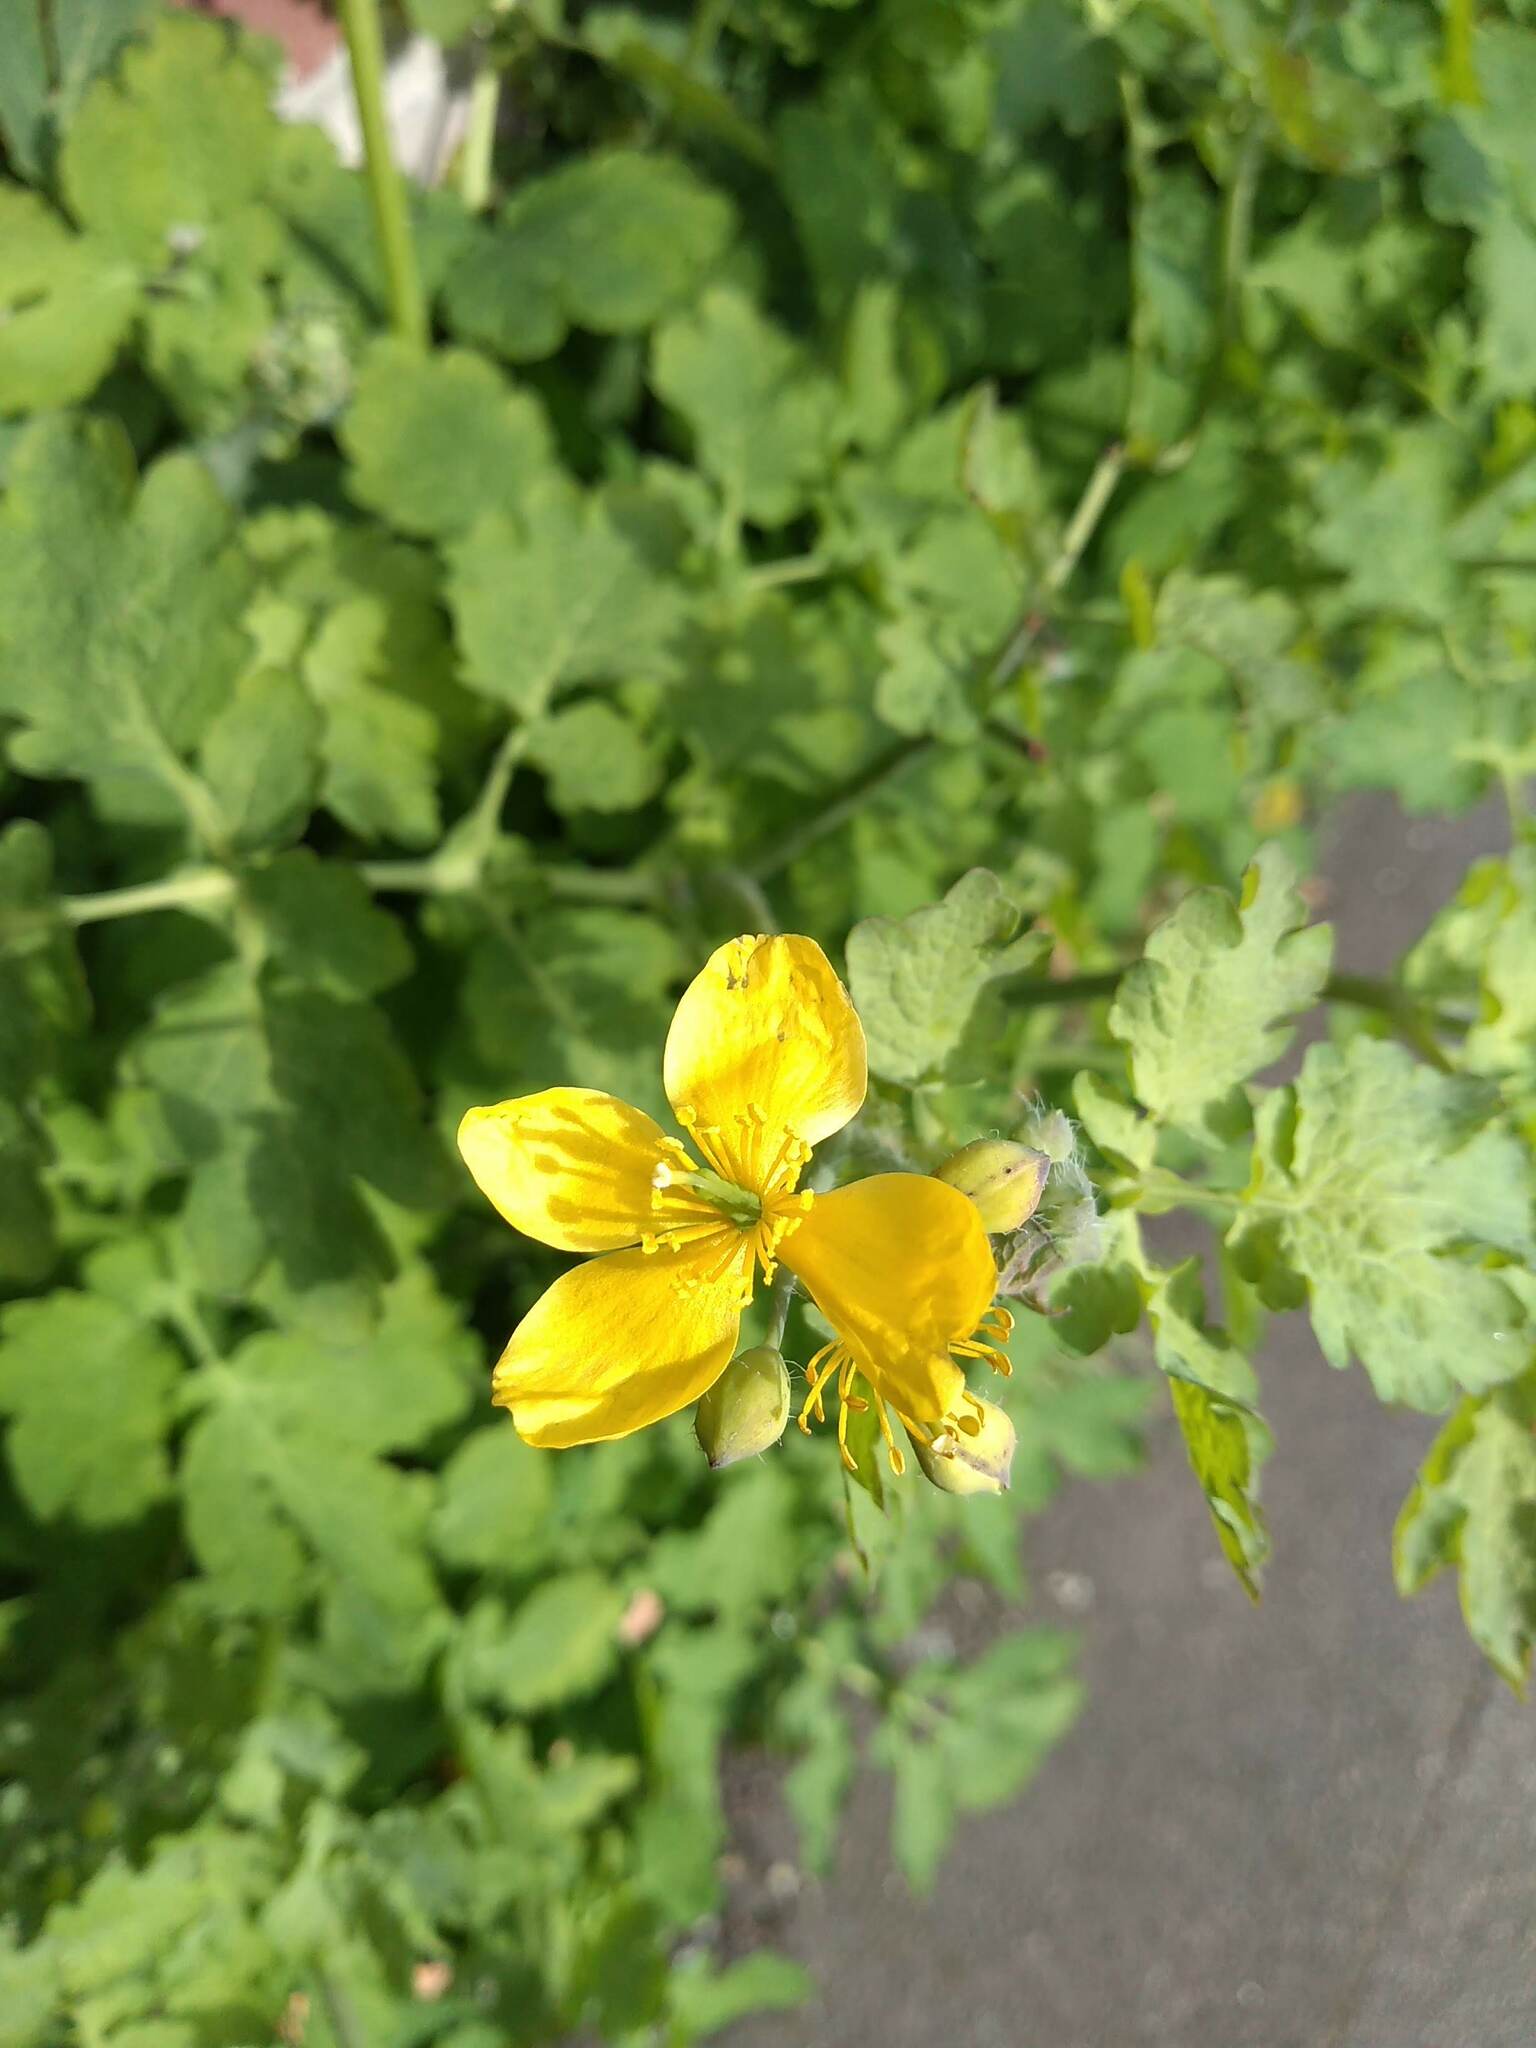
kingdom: Plantae
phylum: Tracheophyta
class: Magnoliopsida
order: Ranunculales
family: Papaveraceae
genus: Chelidonium
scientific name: Chelidonium majus
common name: Greater celandine
